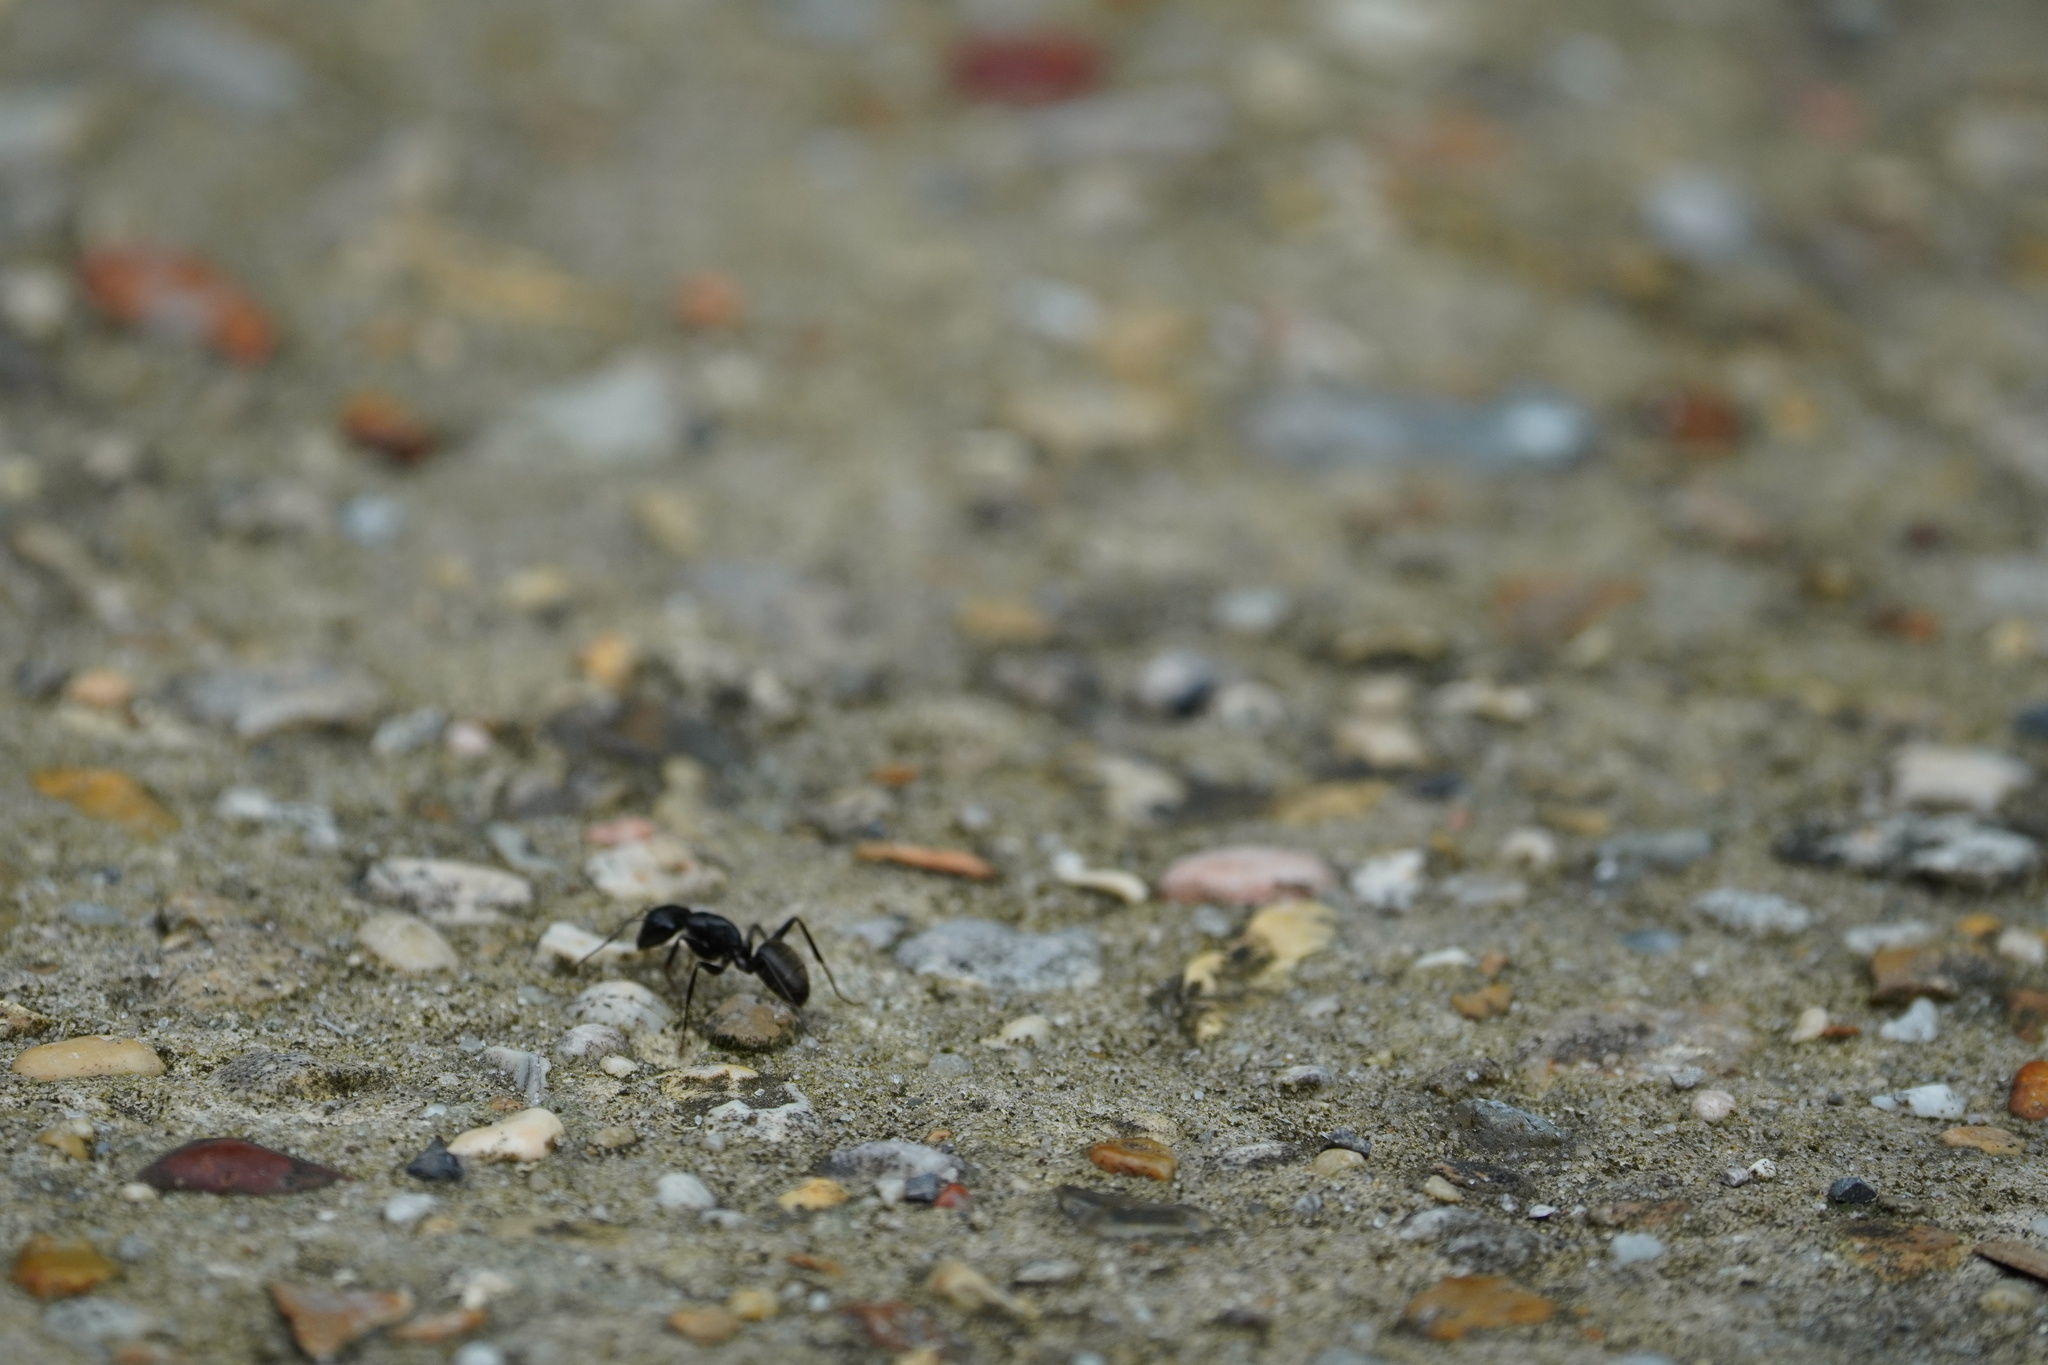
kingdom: Animalia
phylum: Arthropoda
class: Insecta
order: Hymenoptera
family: Formicidae
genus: Camponotus
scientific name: Camponotus pennsylvanicus
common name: Black carpenter ant
